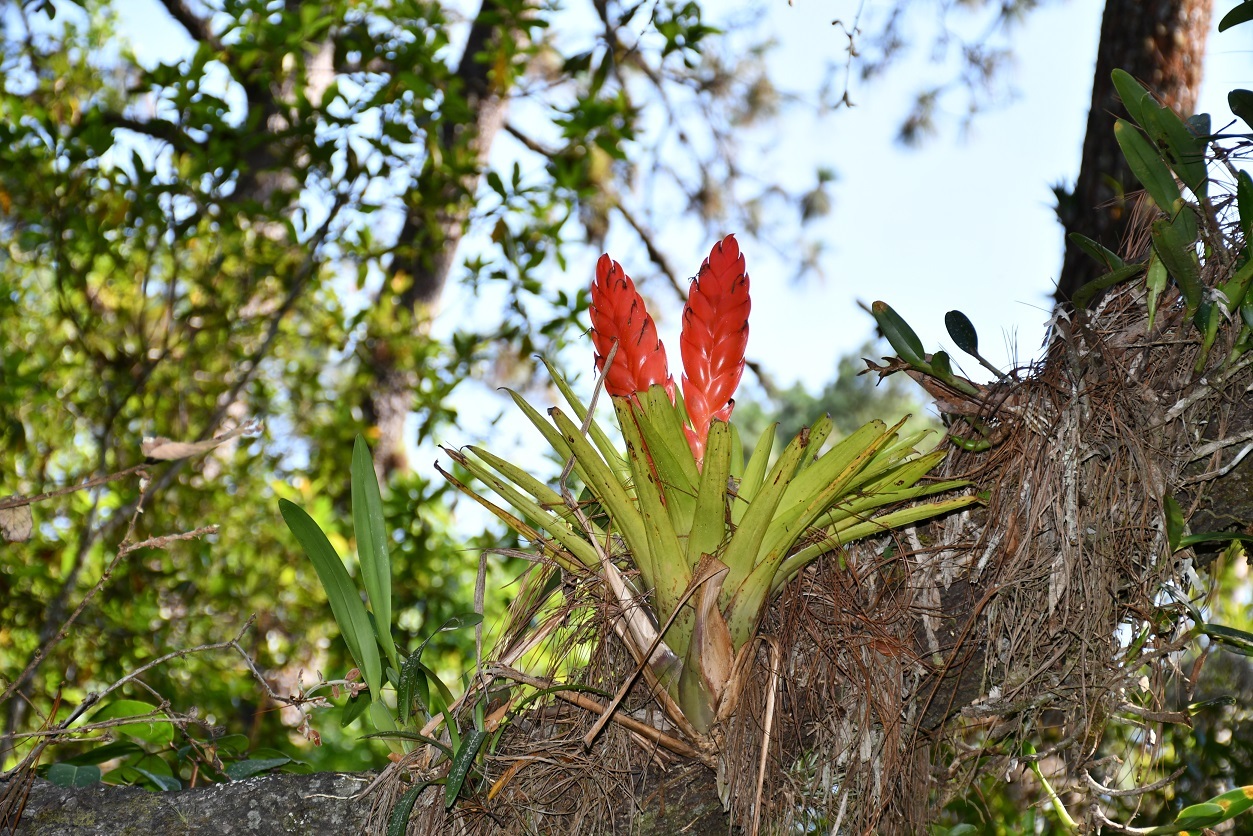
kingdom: Plantae
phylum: Tracheophyta
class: Liliopsida
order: Poales
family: Bromeliaceae
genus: Tillandsia
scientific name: Tillandsia multicaulis
